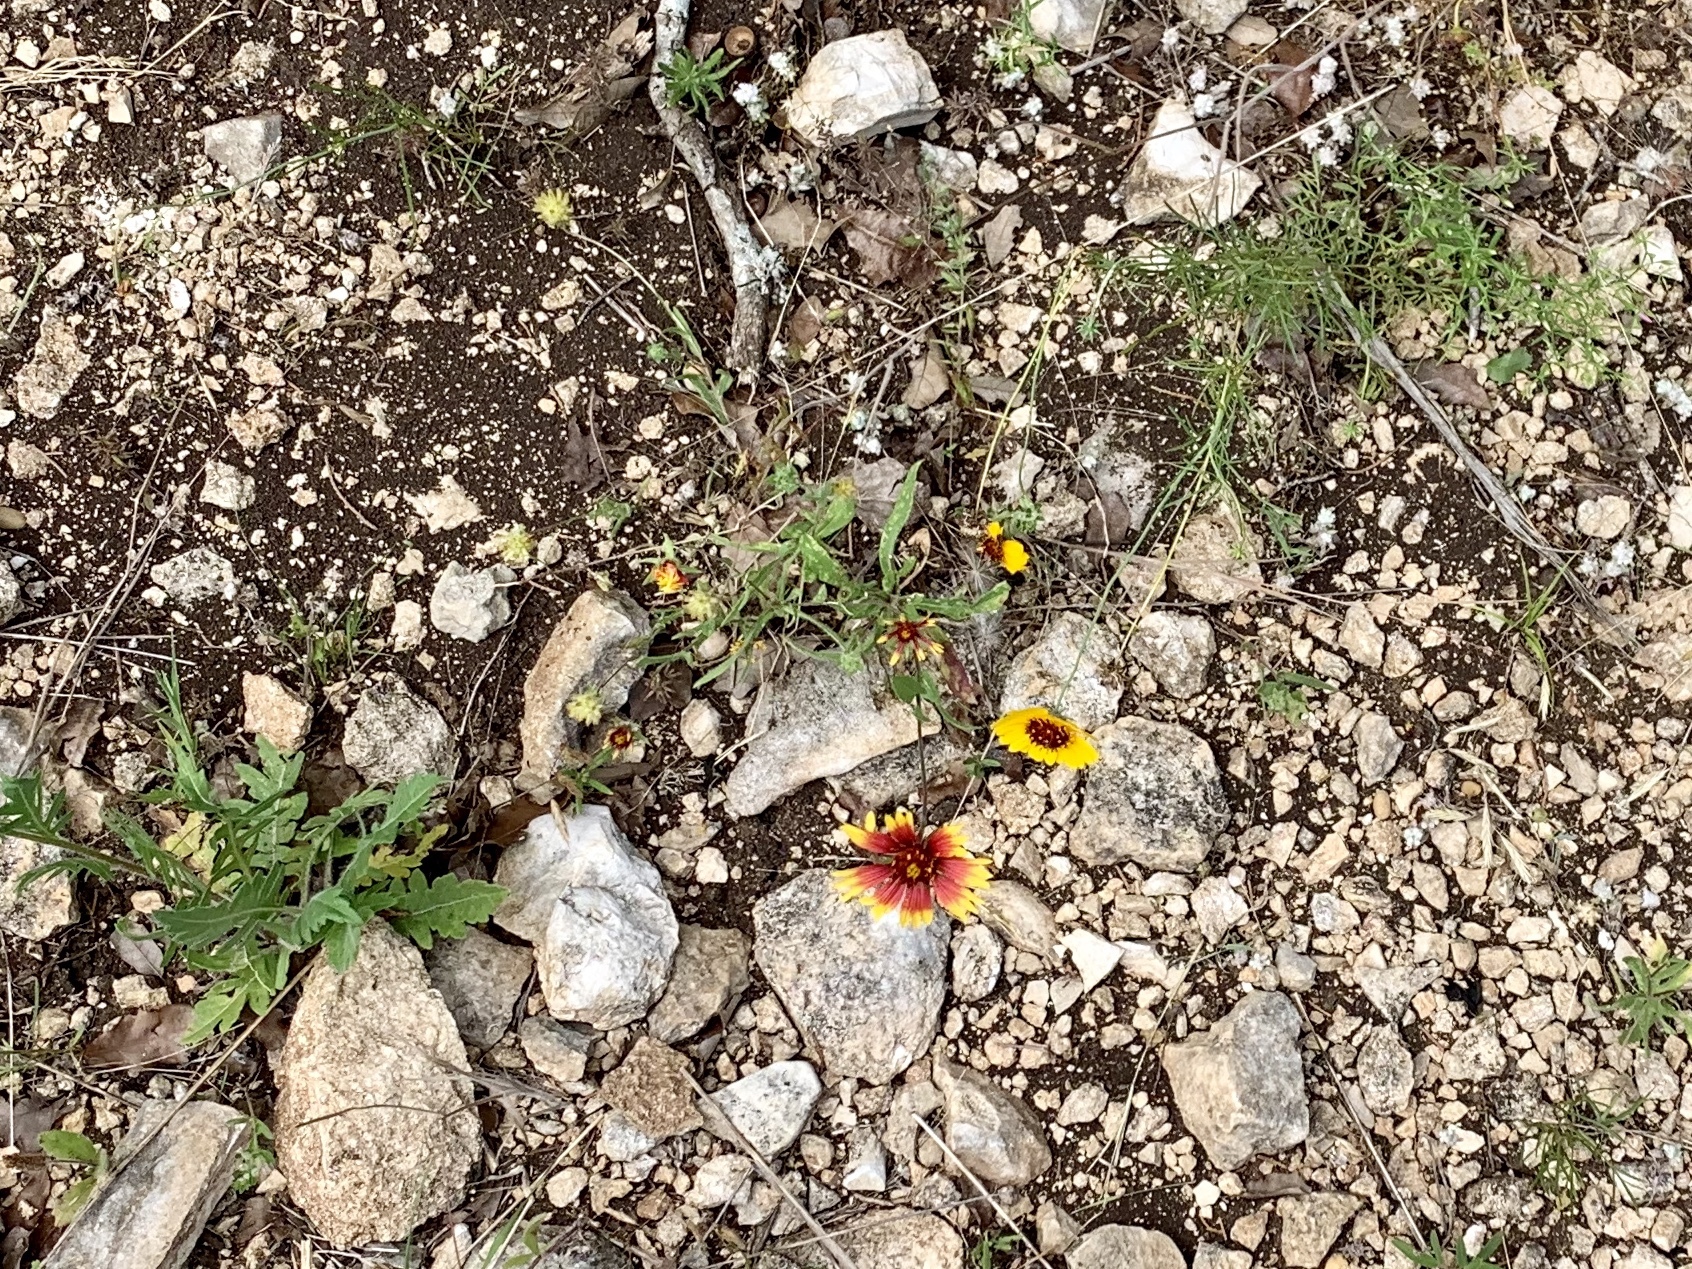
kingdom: Plantae
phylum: Tracheophyta
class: Magnoliopsida
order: Asterales
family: Asteraceae
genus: Gaillardia
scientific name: Gaillardia pulchella
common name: Firewheel
